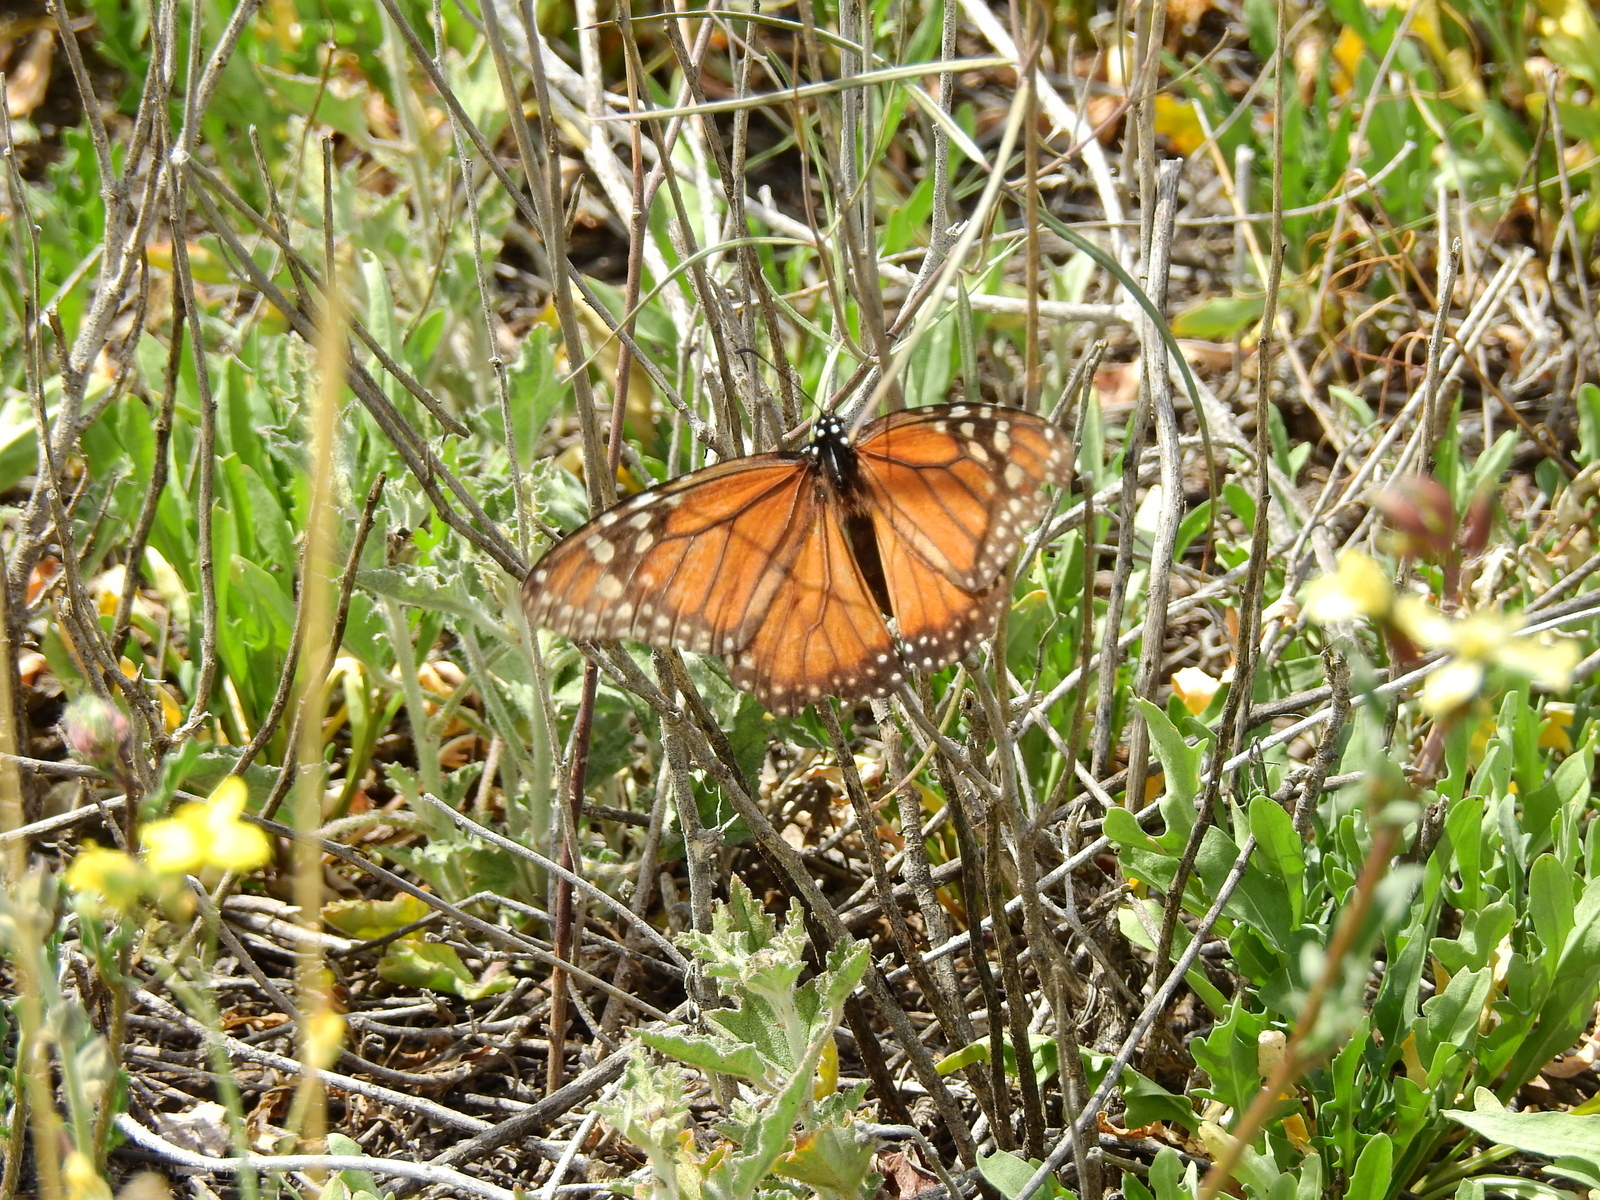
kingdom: Animalia
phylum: Arthropoda
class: Insecta
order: Lepidoptera
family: Nymphalidae
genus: Danaus
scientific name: Danaus erippus
